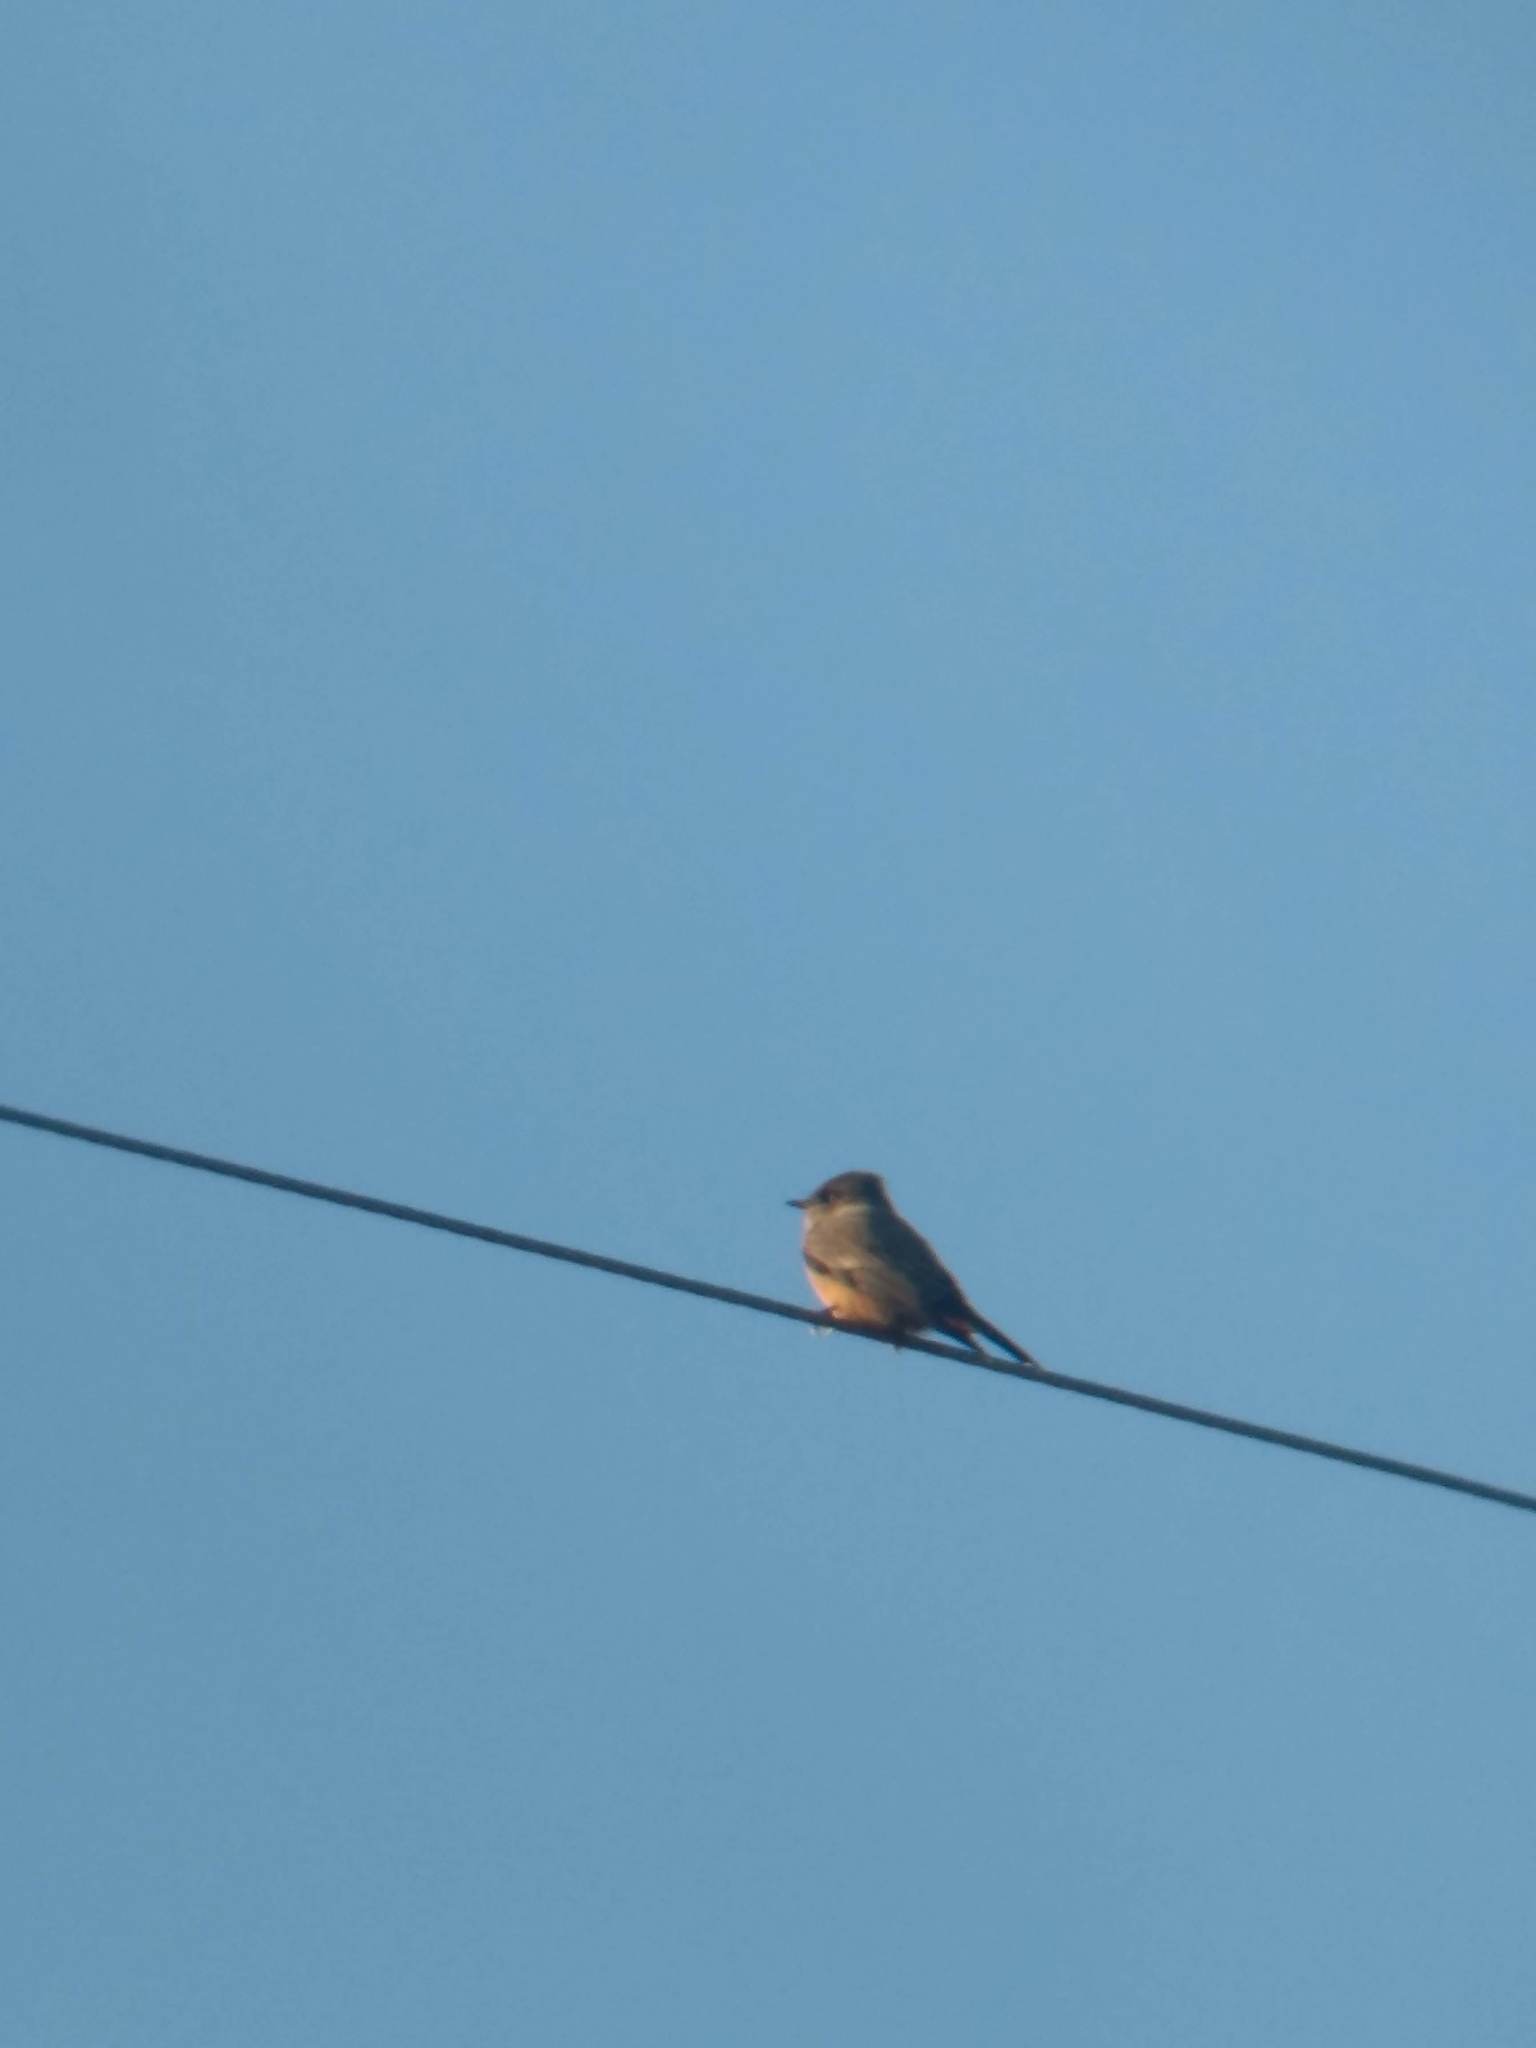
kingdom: Animalia
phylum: Chordata
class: Aves
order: Passeriformes
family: Tyrannidae
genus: Sayornis
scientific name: Sayornis saya
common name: Say's phoebe
